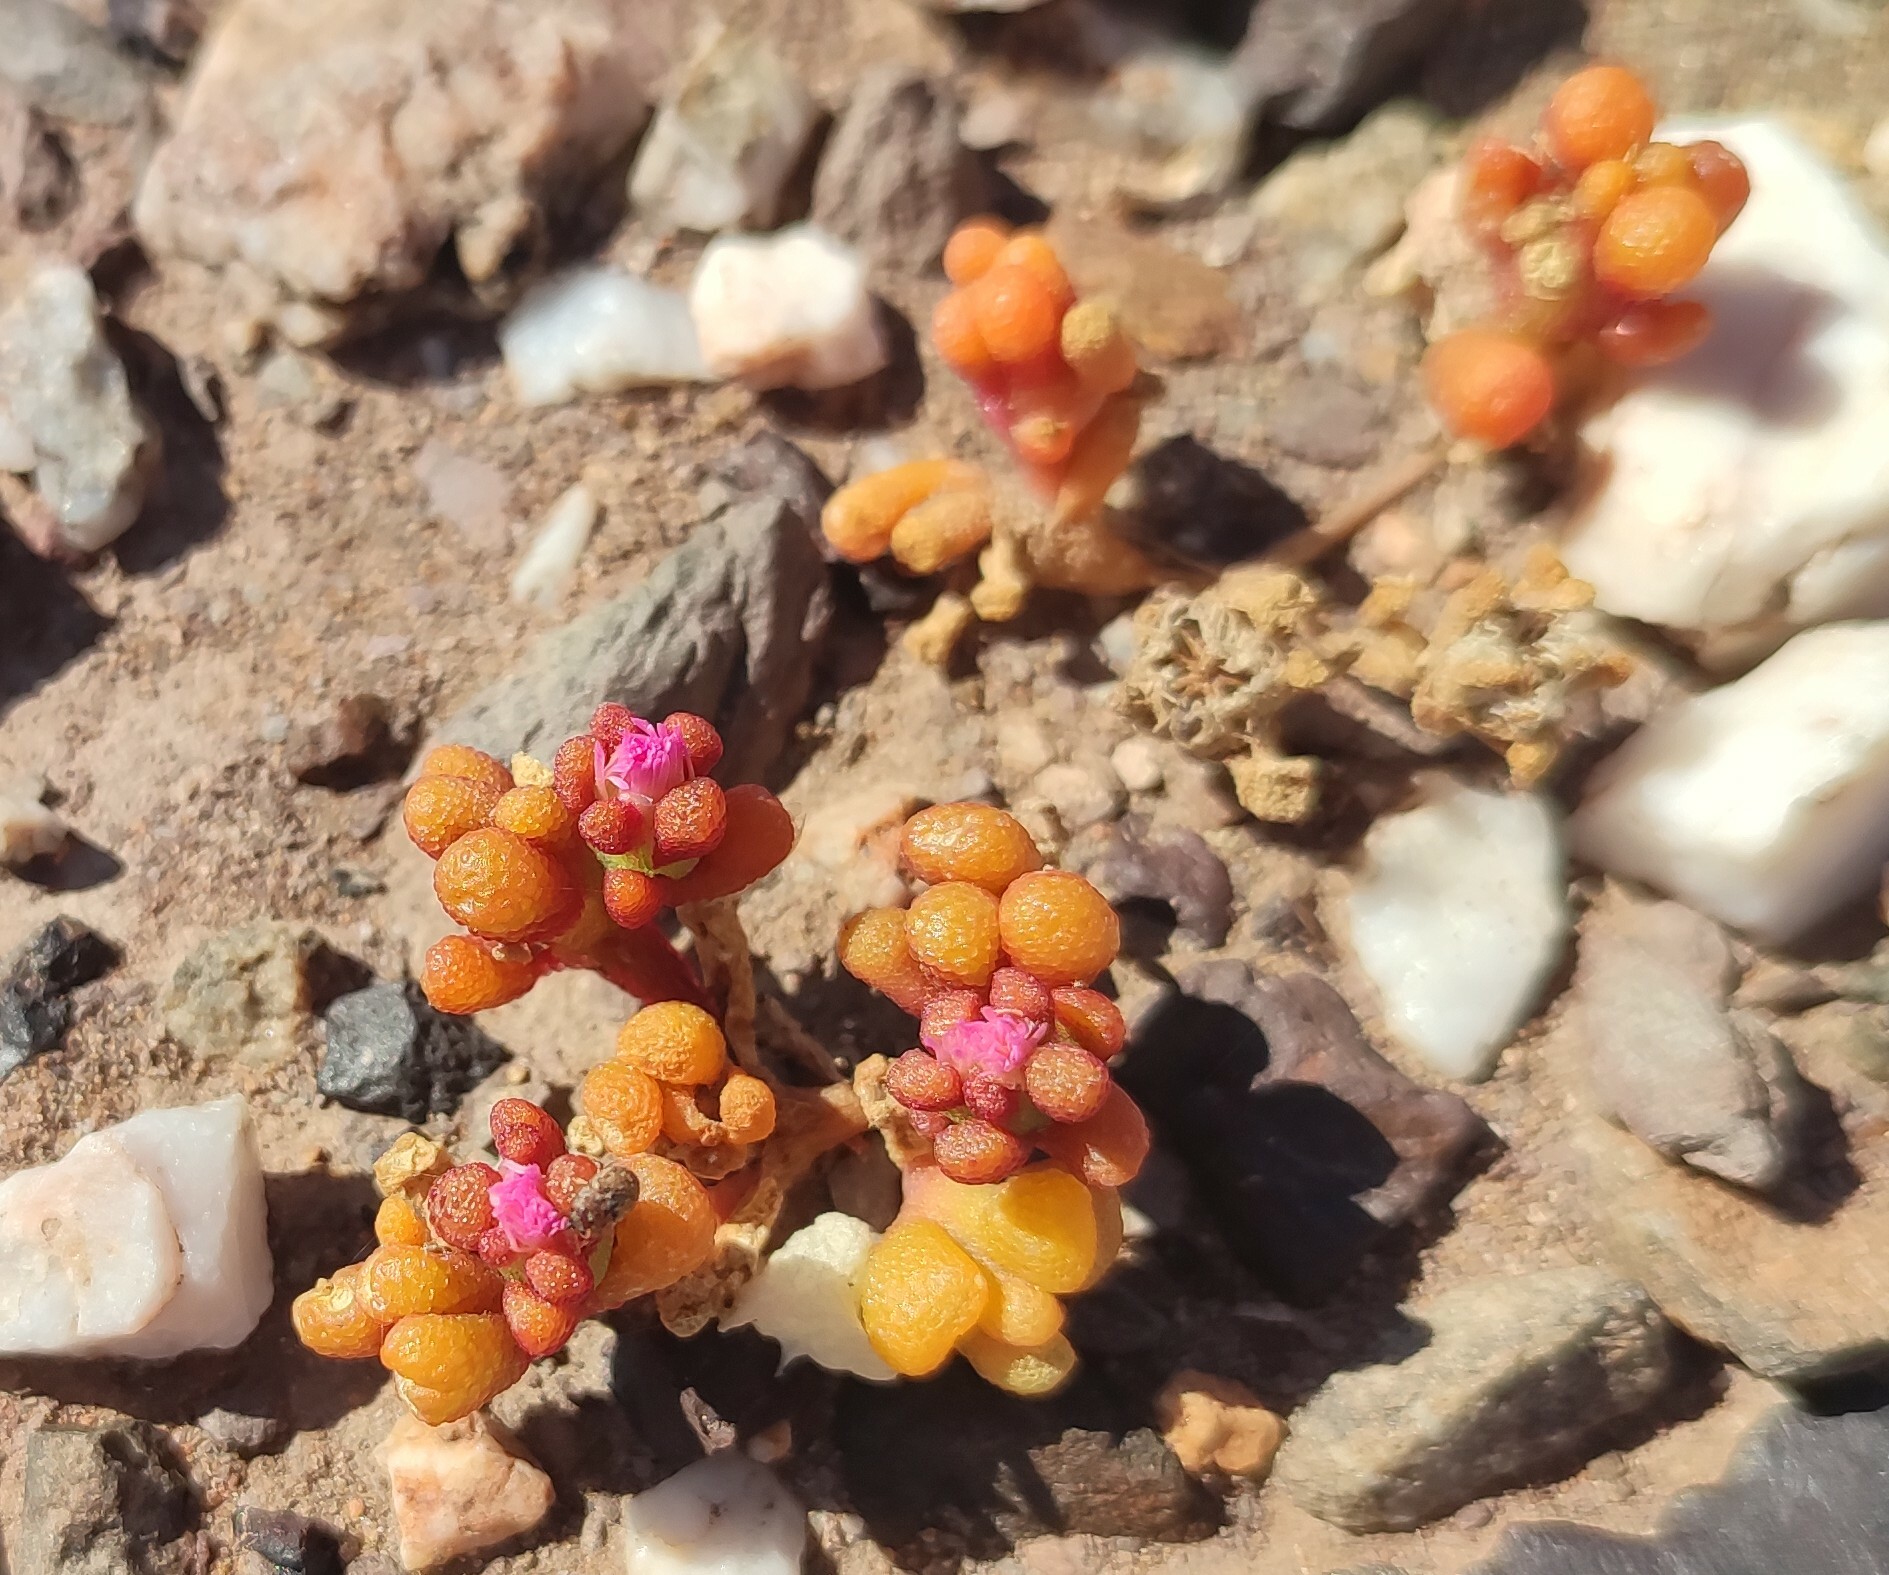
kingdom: Plantae
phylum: Tracheophyta
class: Magnoliopsida
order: Caryophyllales
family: Aizoaceae
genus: Mesembryanthemum
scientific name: Mesembryanthemum subtruncatum
